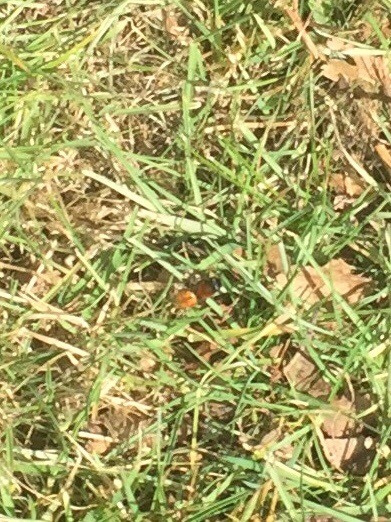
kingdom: Animalia
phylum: Arthropoda
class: Insecta
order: Hymenoptera
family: Andrenidae
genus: Andrena
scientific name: Andrena fulva
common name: Tawny mining bee
